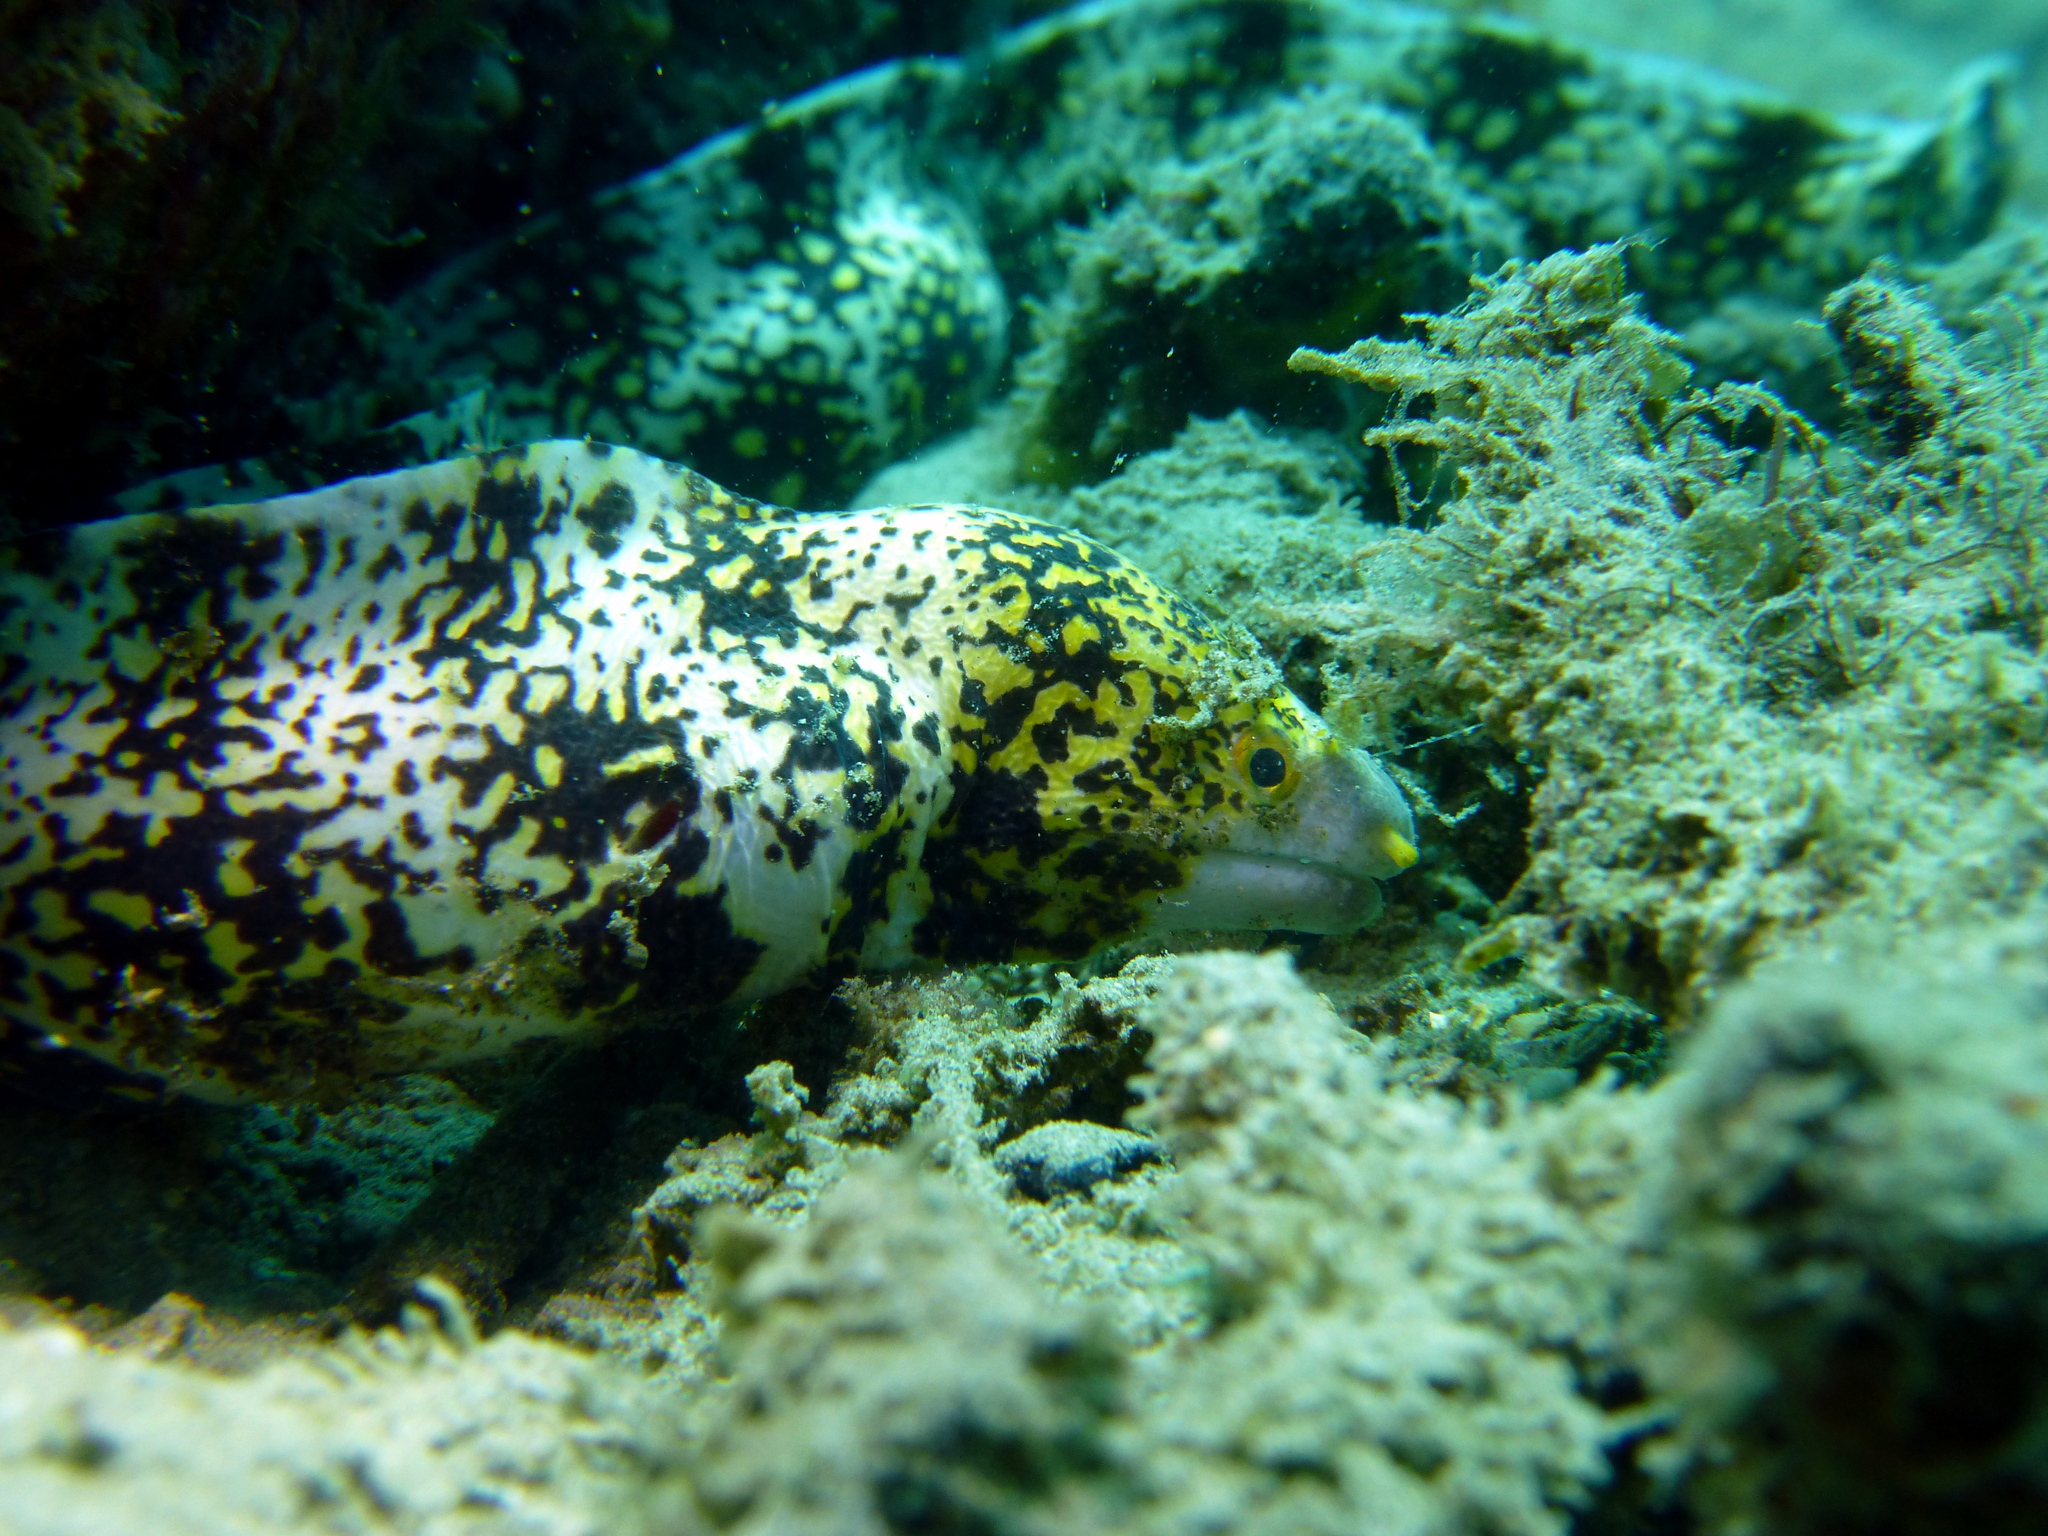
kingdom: Animalia
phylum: Chordata
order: Anguilliformes
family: Muraenidae
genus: Echidna
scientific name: Echidna nebulosa
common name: Snowflake moray
